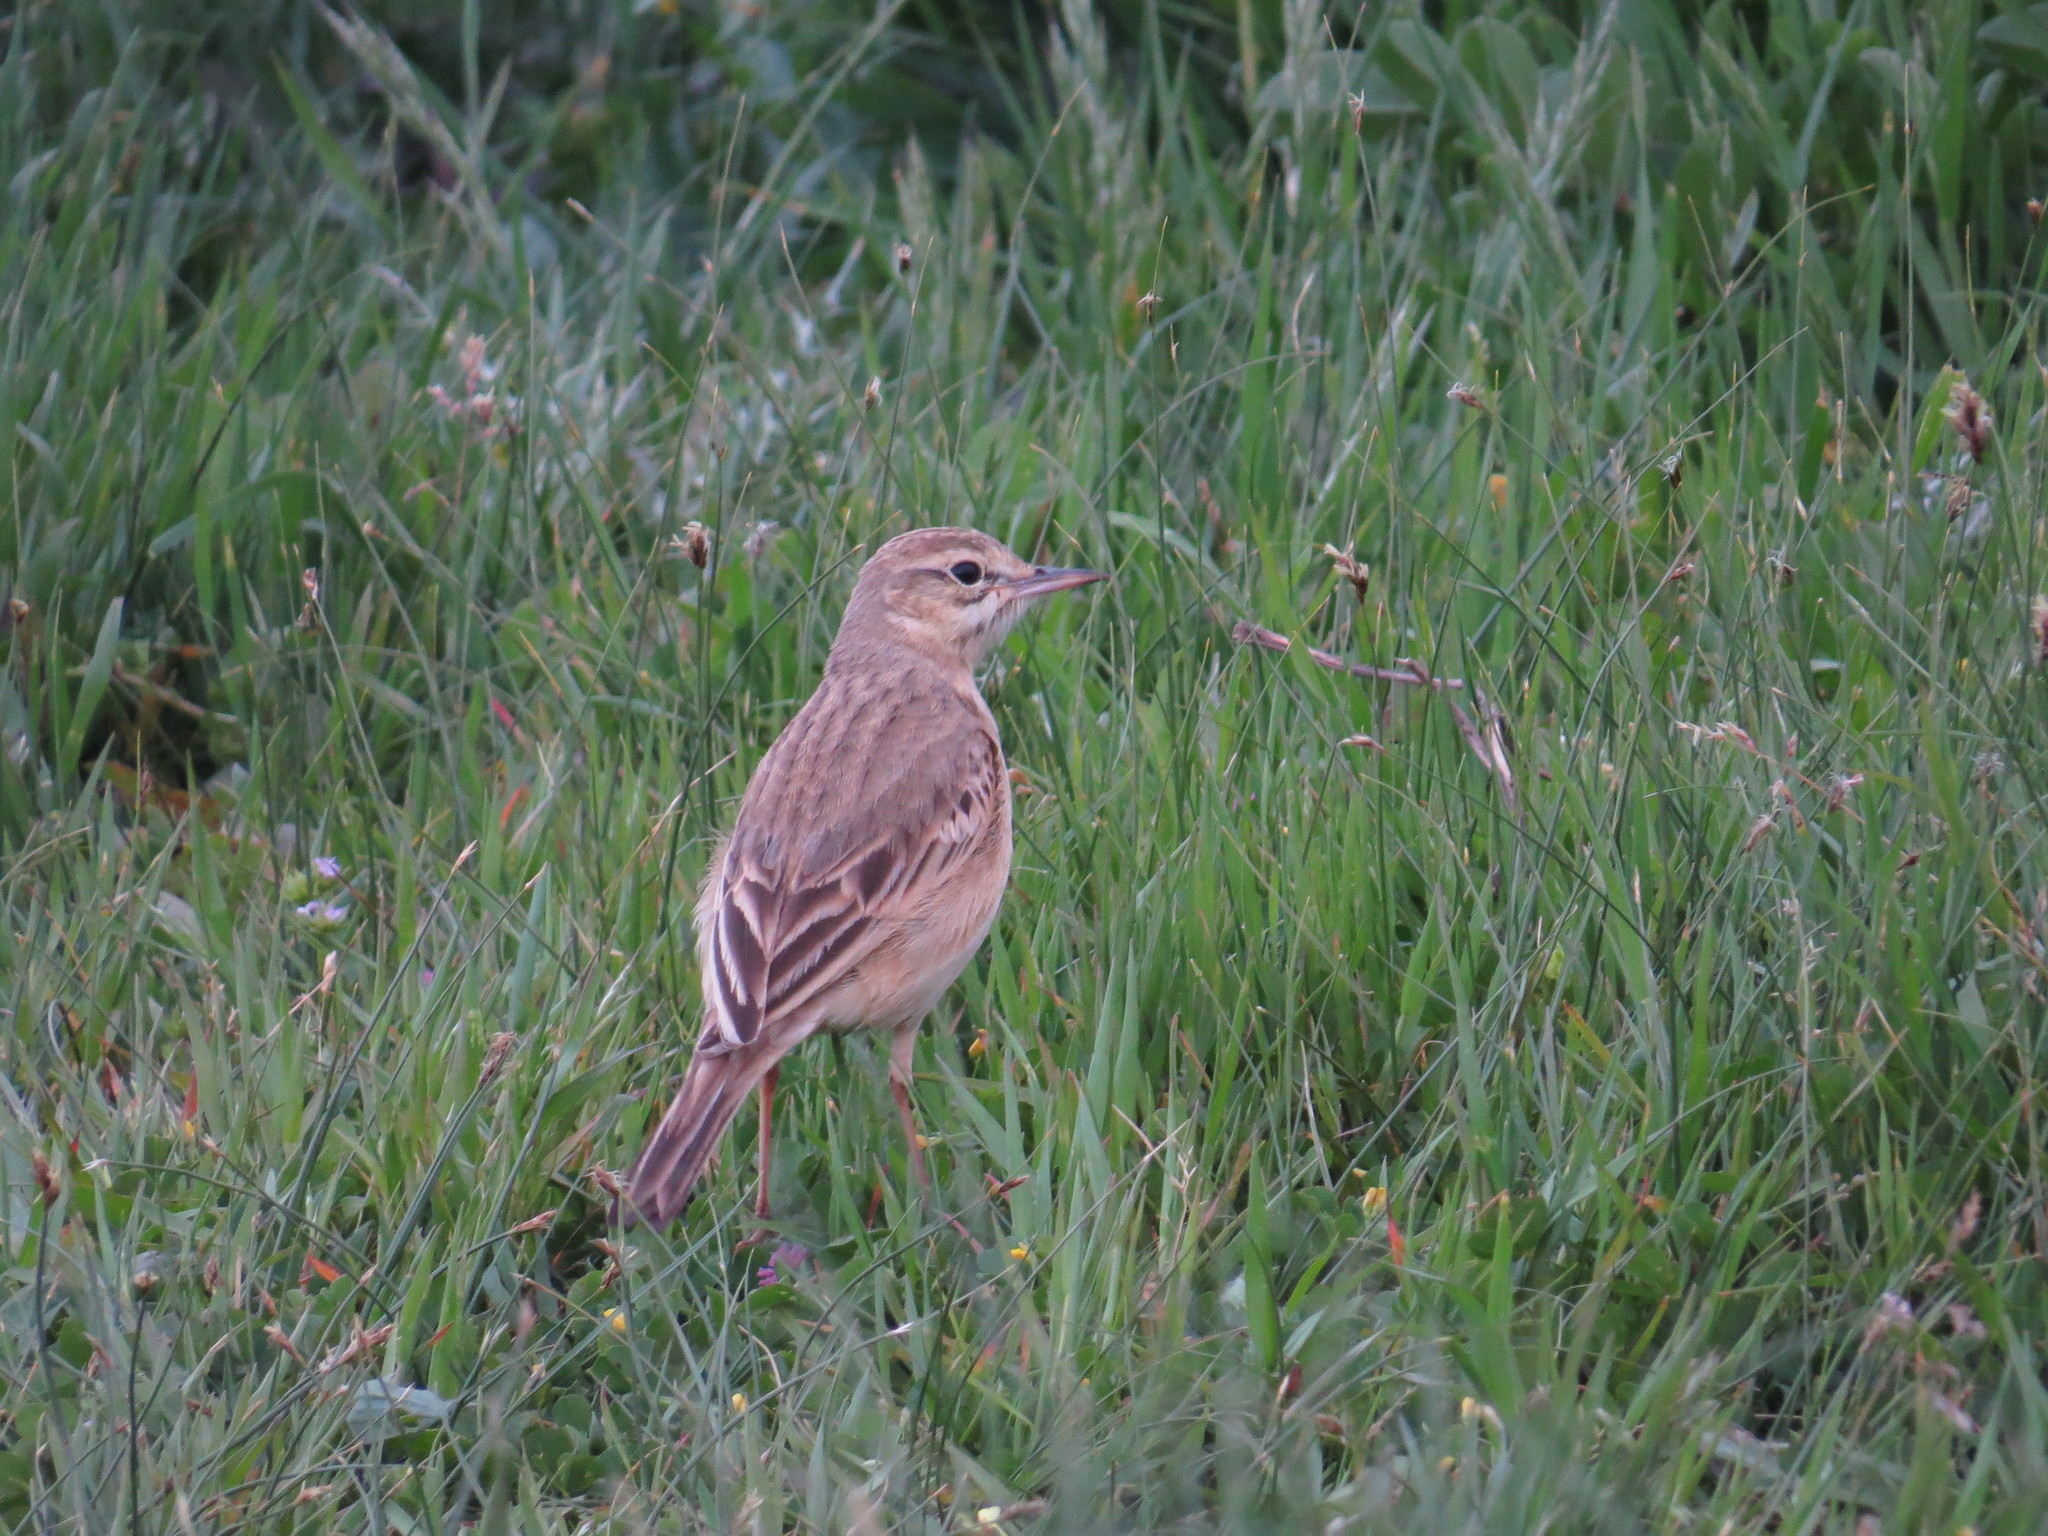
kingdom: Animalia
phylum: Chordata
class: Aves
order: Passeriformes
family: Motacillidae
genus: Anthus
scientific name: Anthus campestris
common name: Tawny pipit
